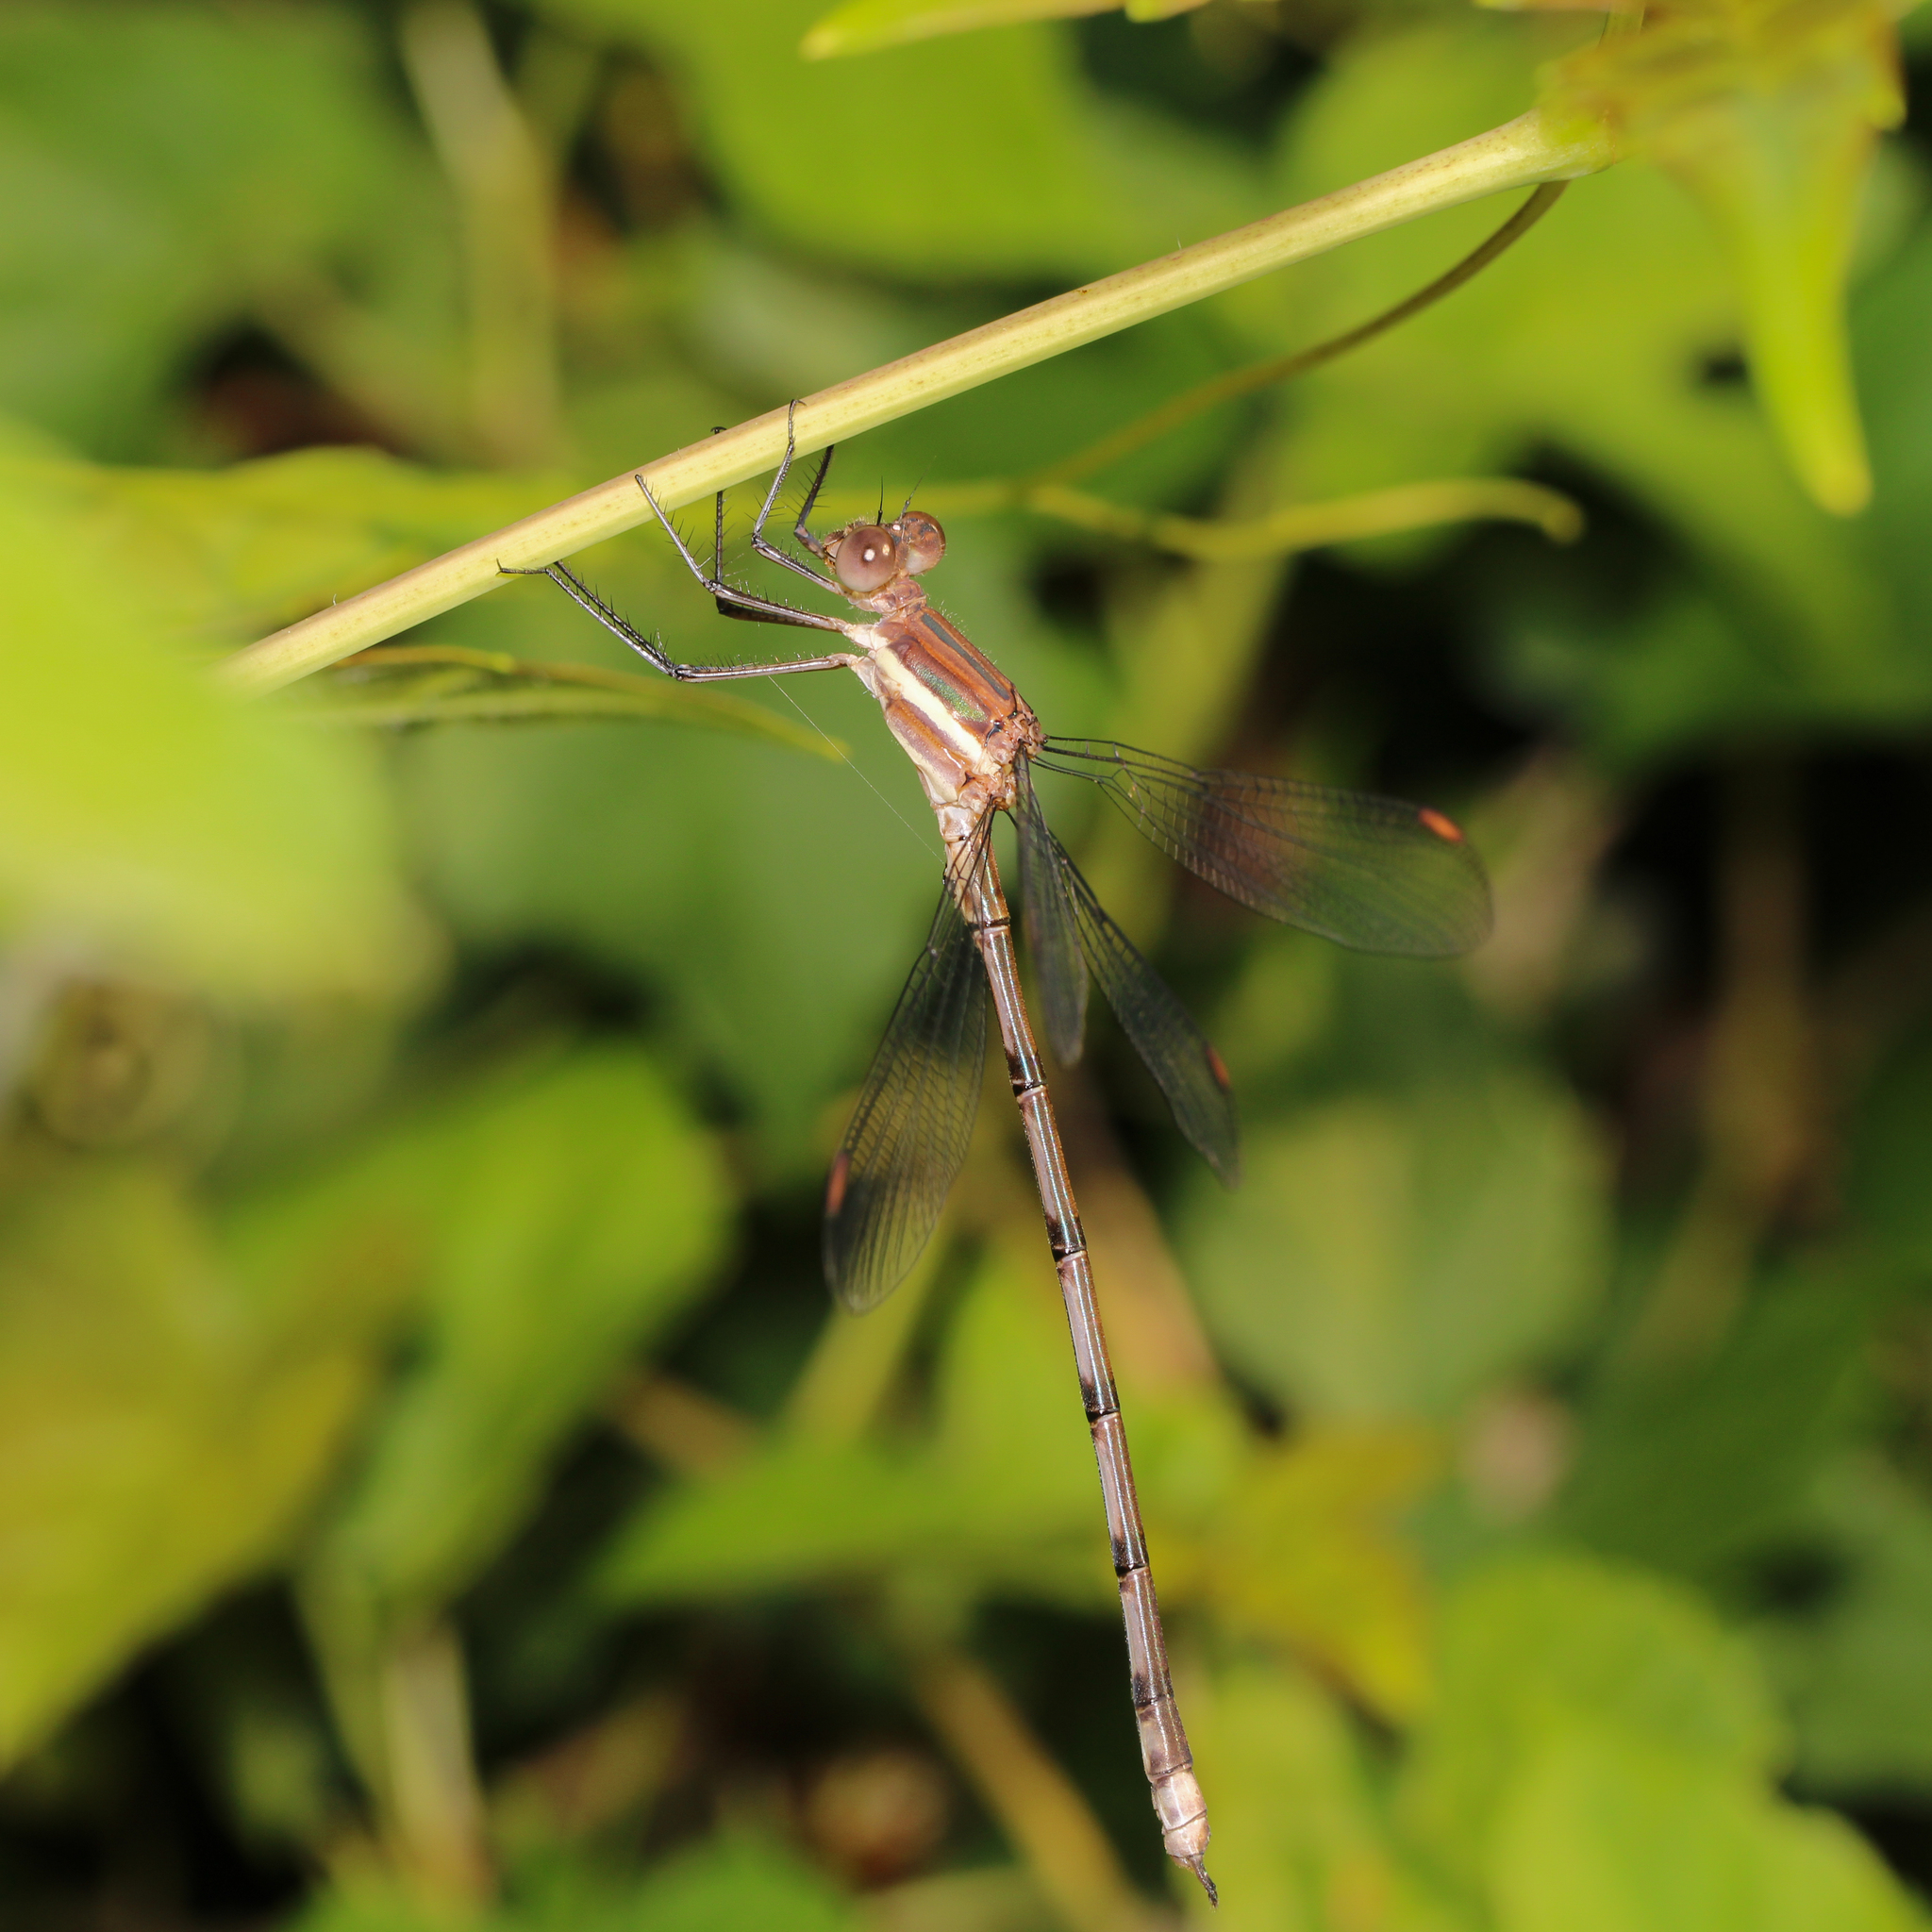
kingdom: Animalia
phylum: Arthropoda
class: Insecta
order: Odonata
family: Lestidae
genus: Archilestes
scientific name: Archilestes grandis
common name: Great spreadwing
